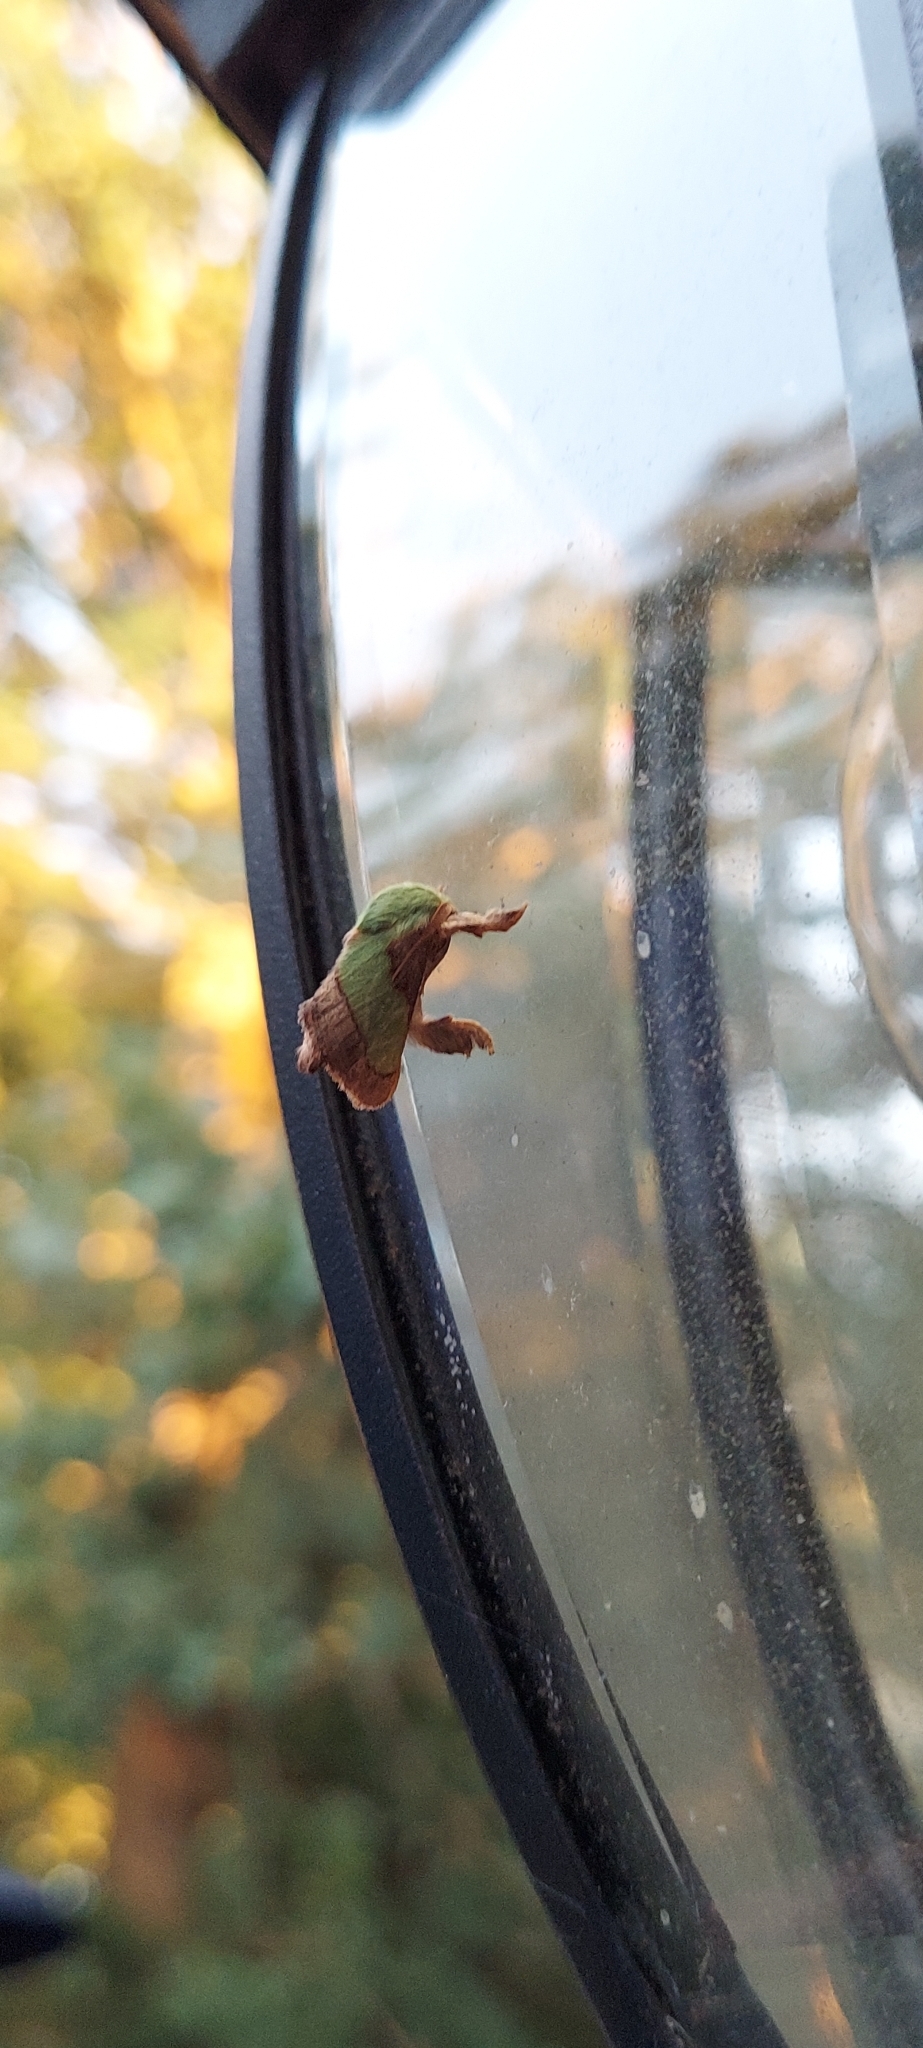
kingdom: Animalia
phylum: Arthropoda
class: Insecta
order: Lepidoptera
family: Limacodidae
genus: Parasa
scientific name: Parasa chloris
